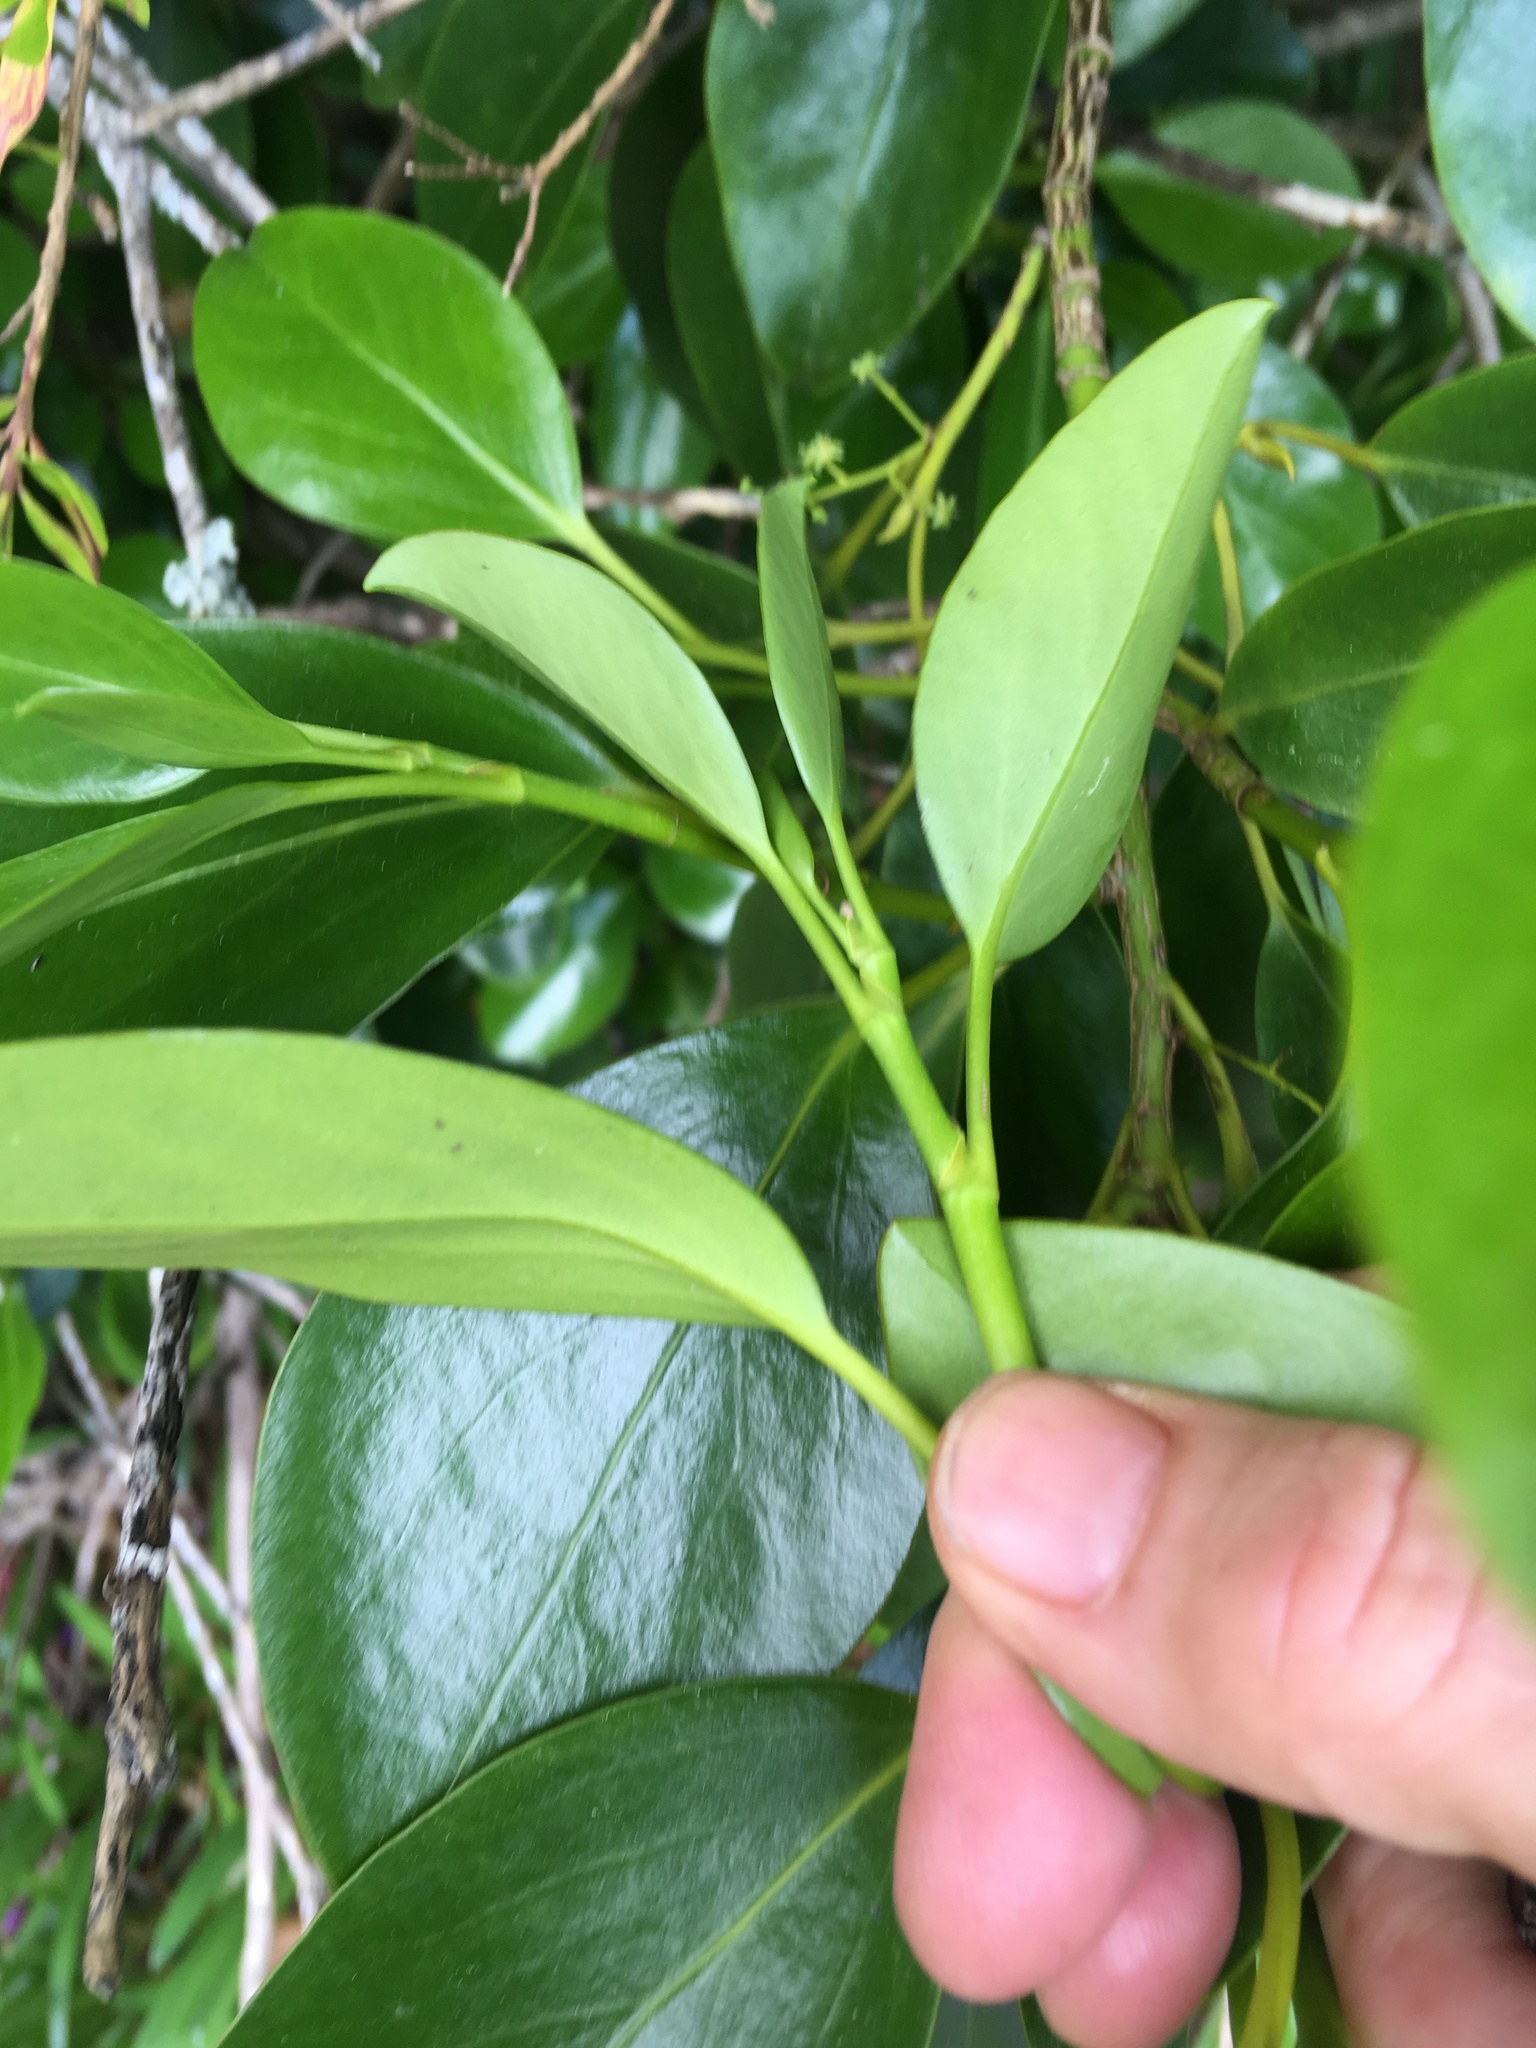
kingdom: Plantae
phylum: Tracheophyta
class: Magnoliopsida
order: Apiales
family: Griseliniaceae
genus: Griselinia
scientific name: Griselinia littoralis
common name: New zealand broadleaf
